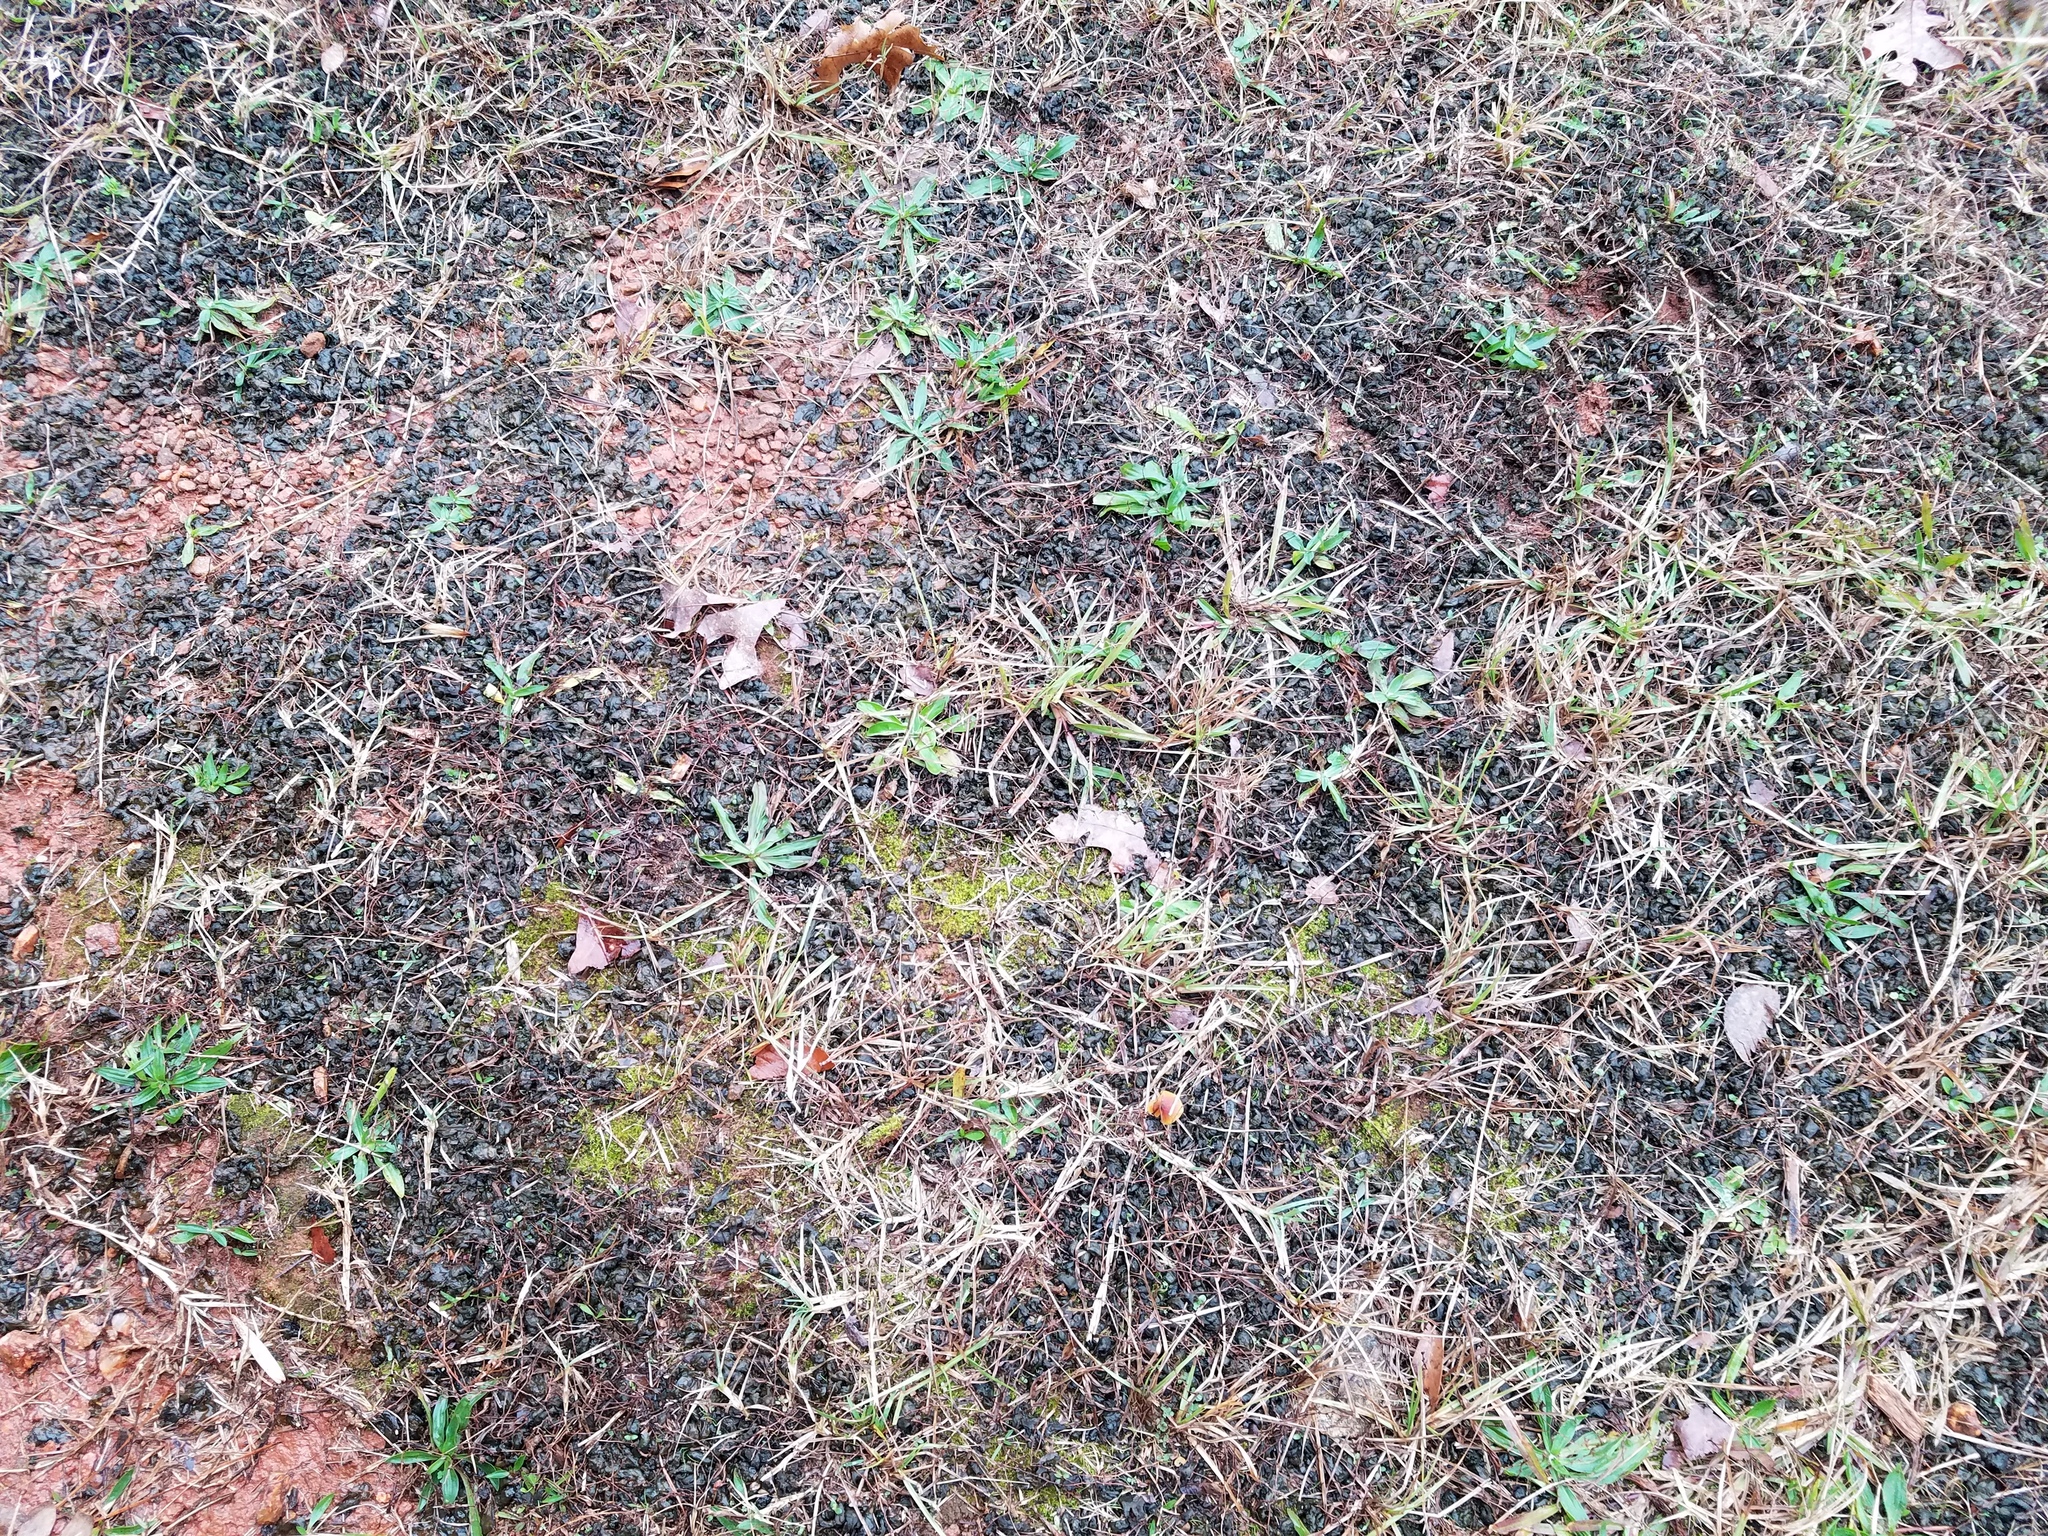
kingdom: Bacteria
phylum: Cyanobacteria
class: Cyanobacteriia
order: Cyanobacteriales
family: Nostocaceae
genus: Nostoc
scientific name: Nostoc commune
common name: Star jelly
